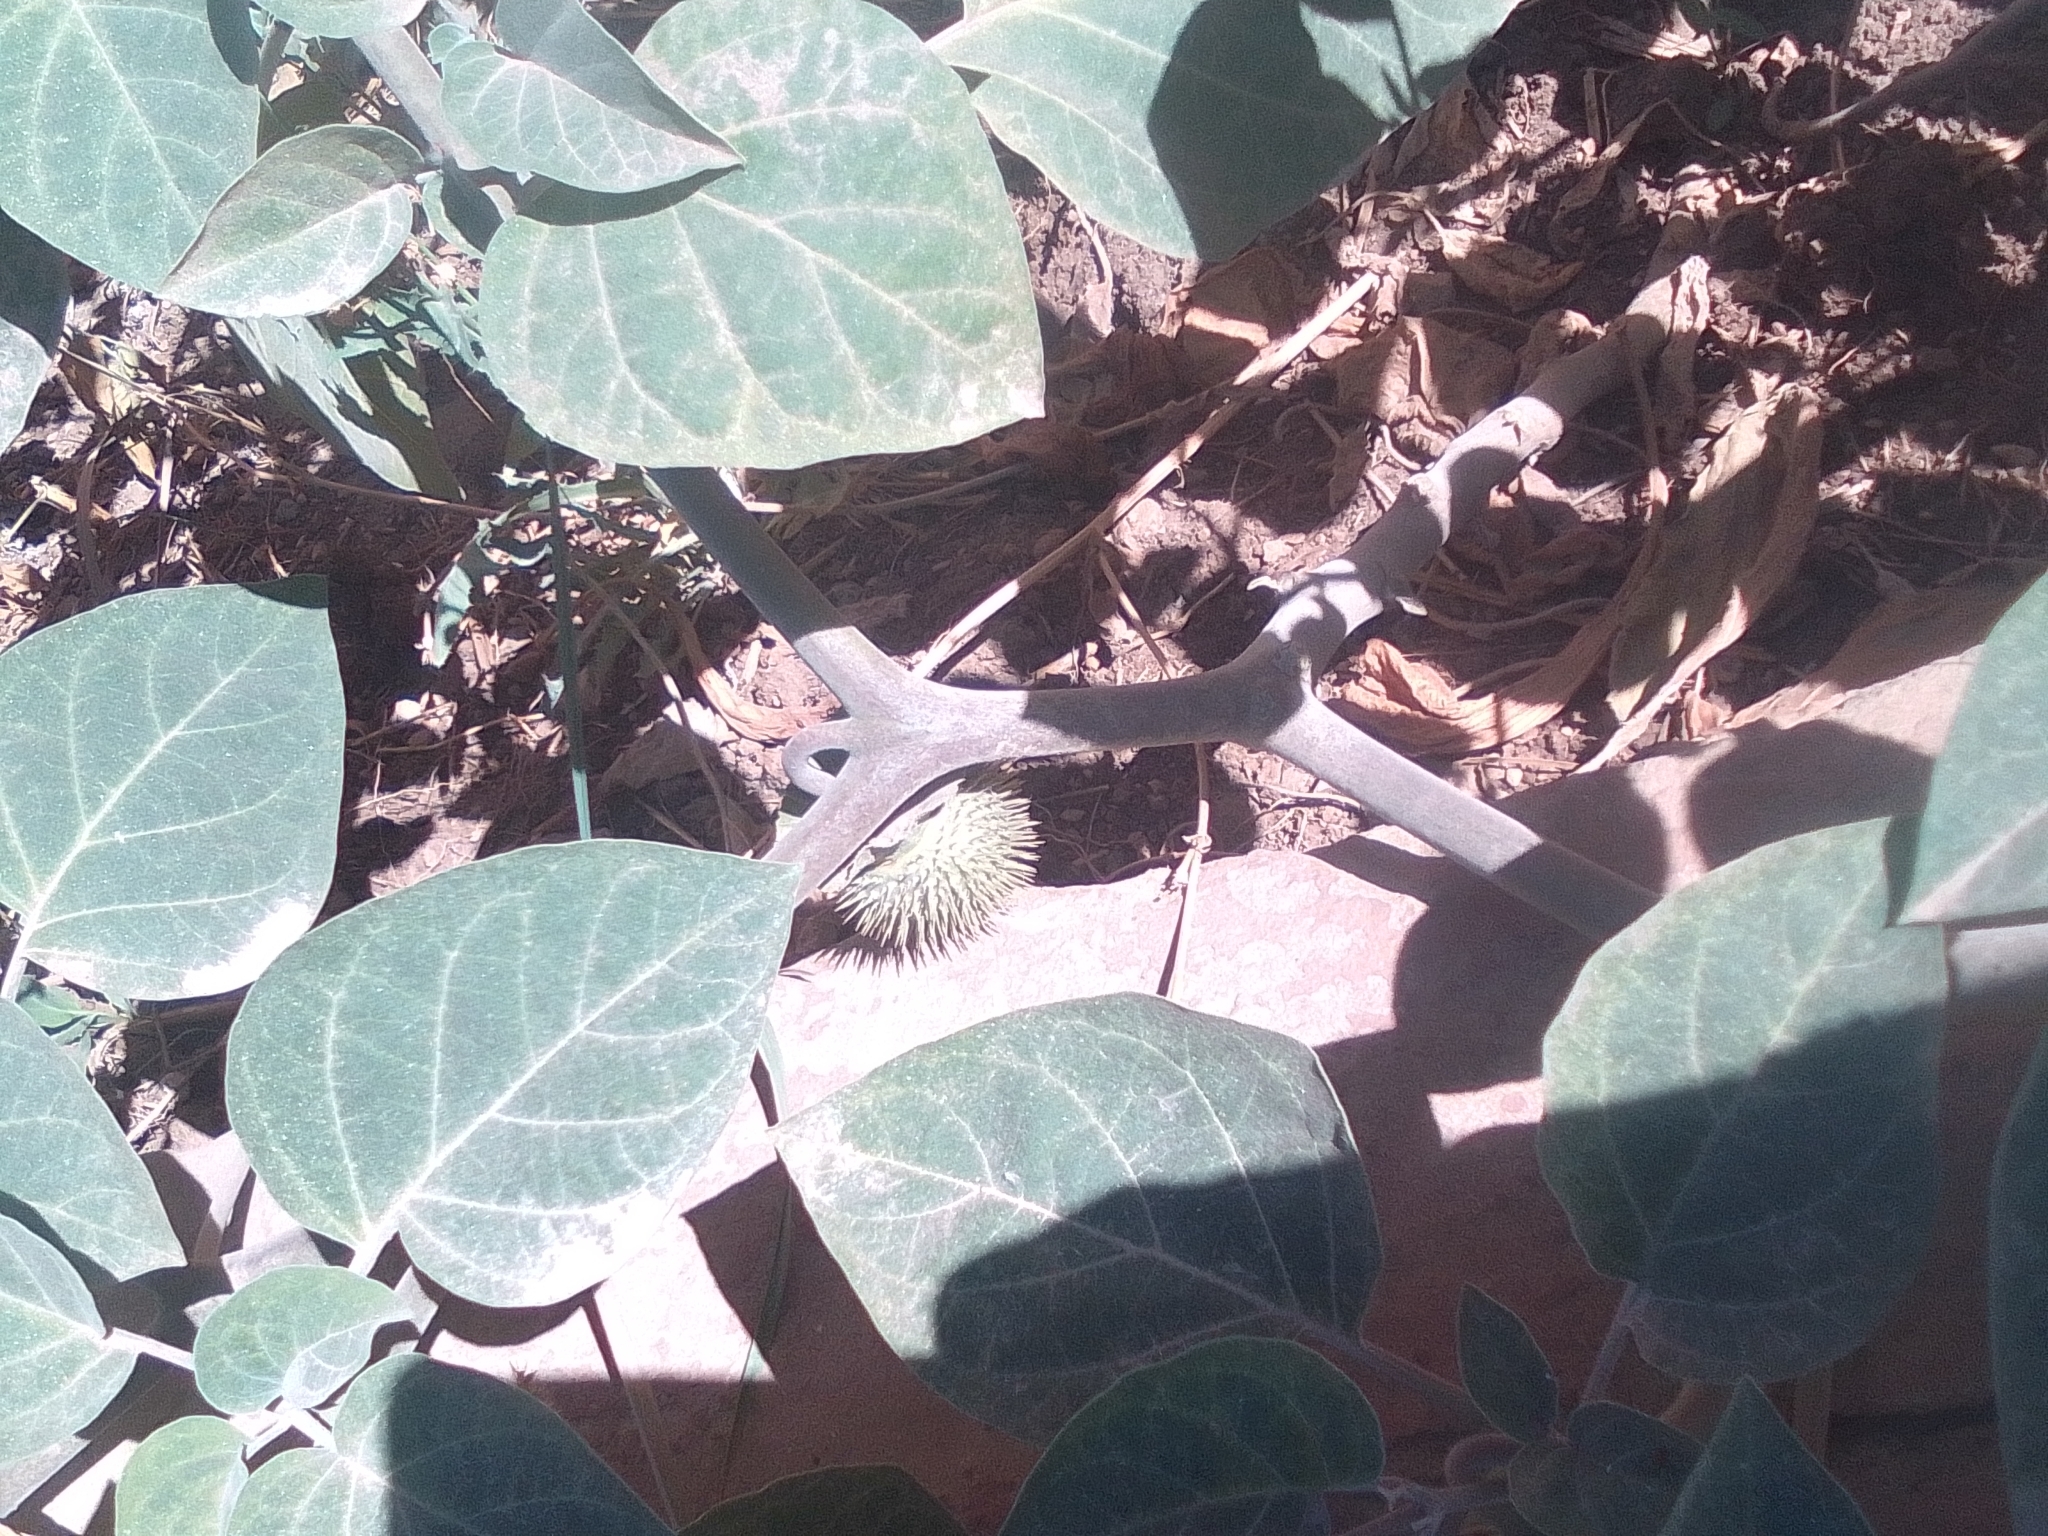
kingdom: Plantae
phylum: Tracheophyta
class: Magnoliopsida
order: Solanales
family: Solanaceae
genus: Datura
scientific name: Datura innoxia
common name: Downy thorn-apple
